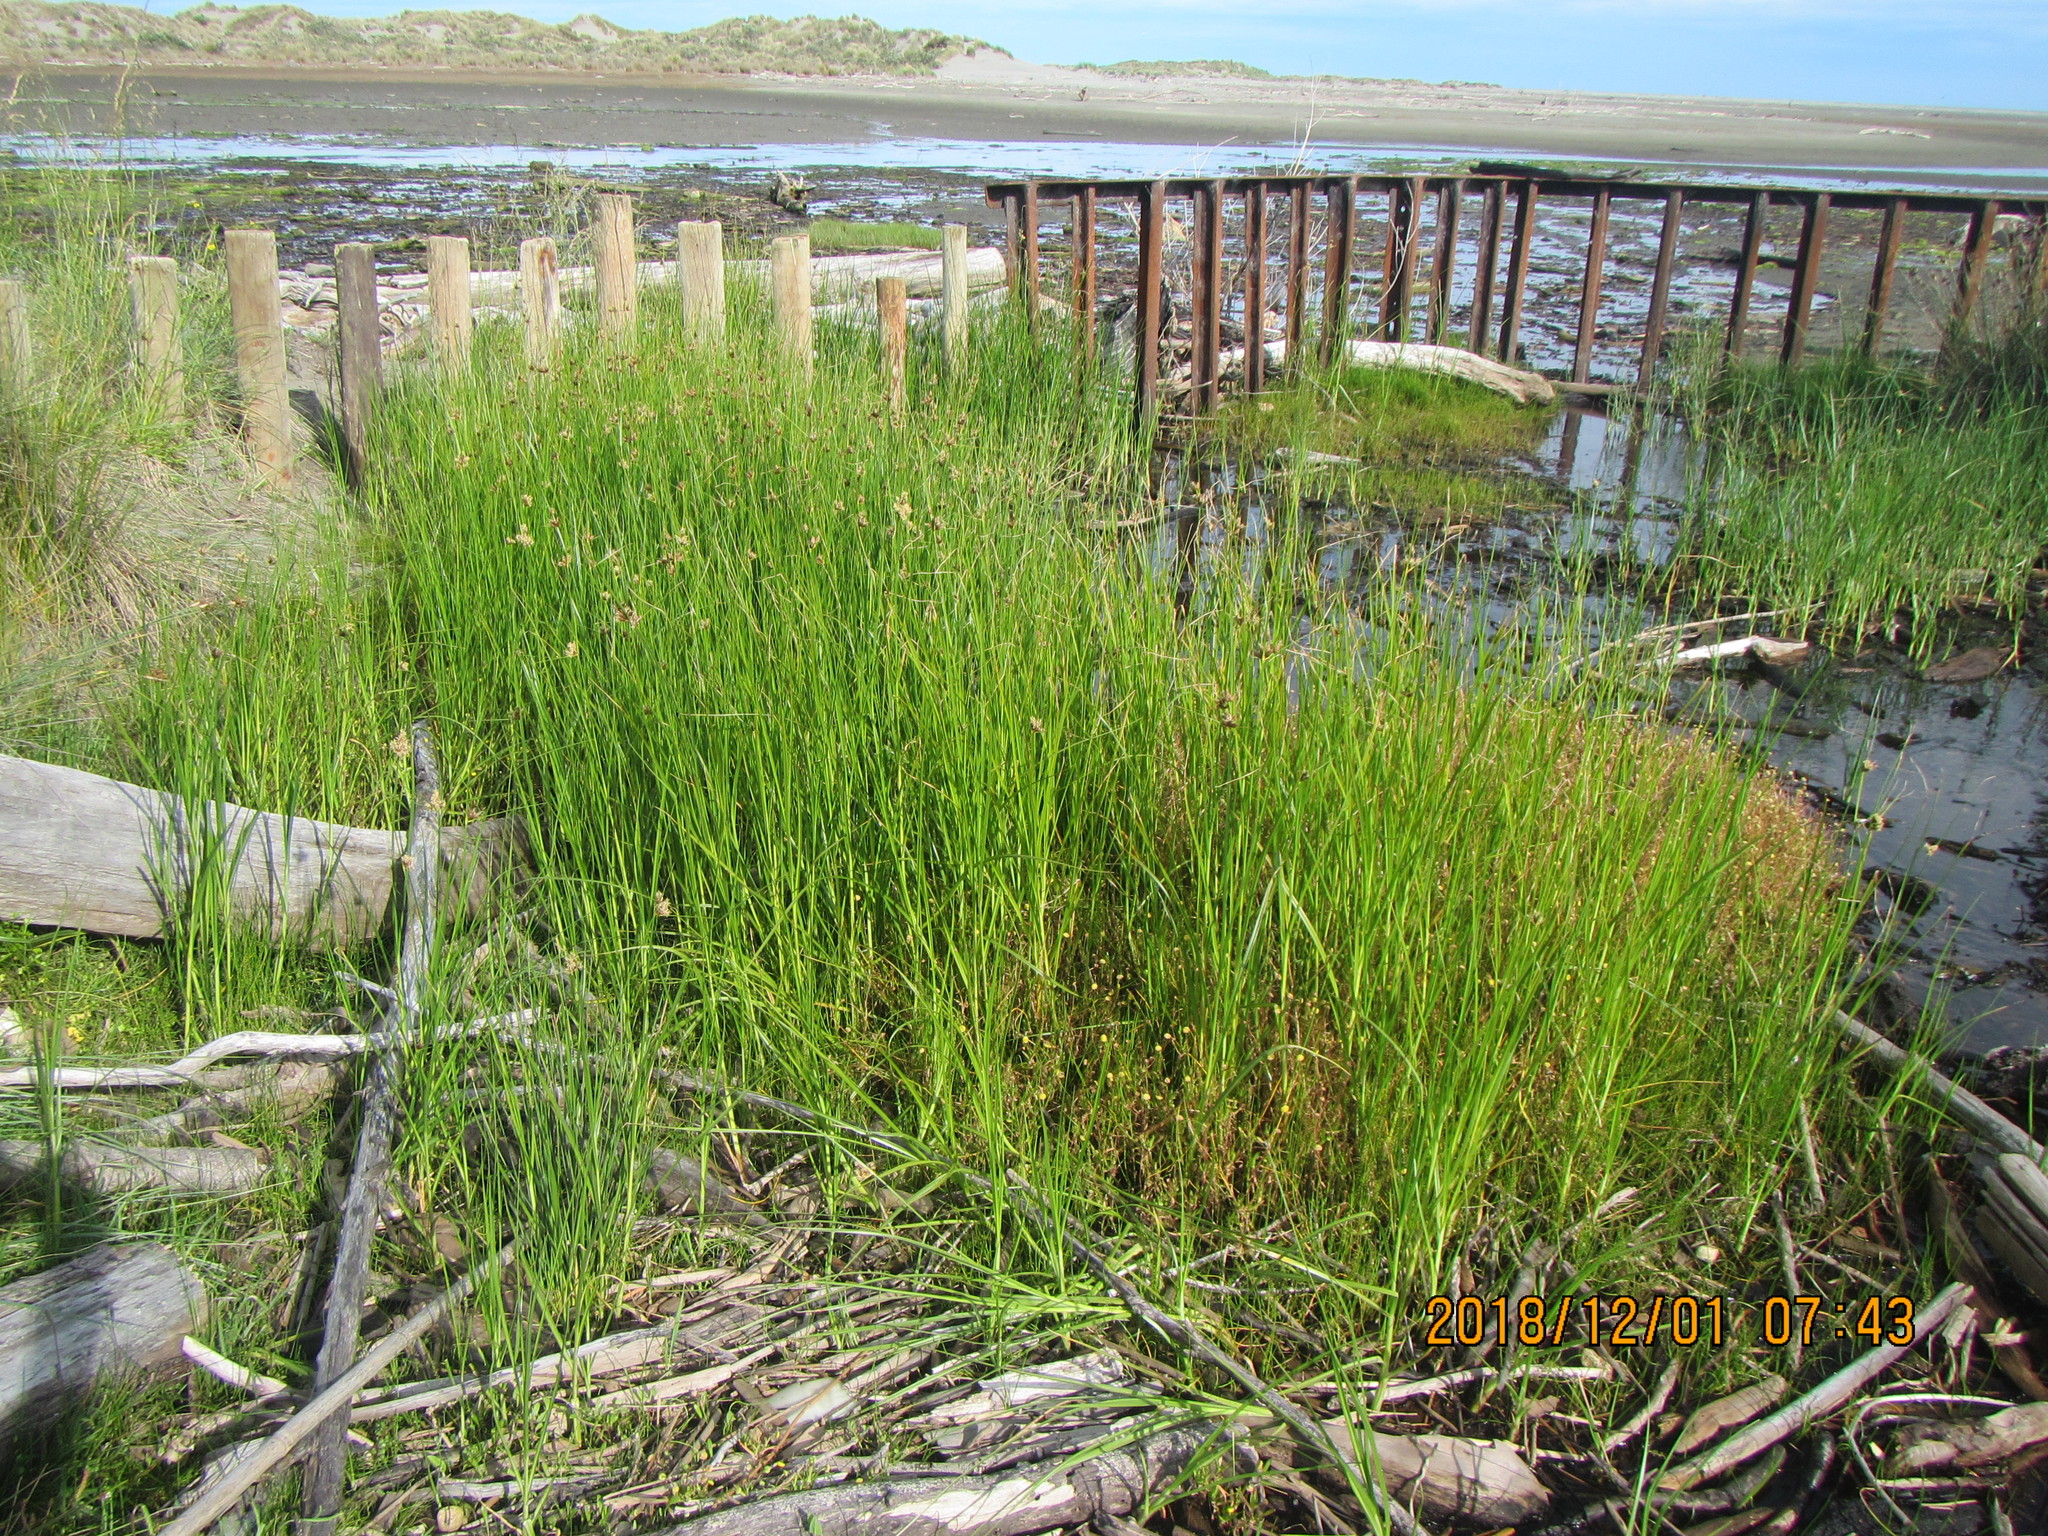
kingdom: Plantae
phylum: Tracheophyta
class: Liliopsida
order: Poales
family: Cyperaceae
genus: Schoenoplectus
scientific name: Schoenoplectus pungens
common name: Sharp club-rush
